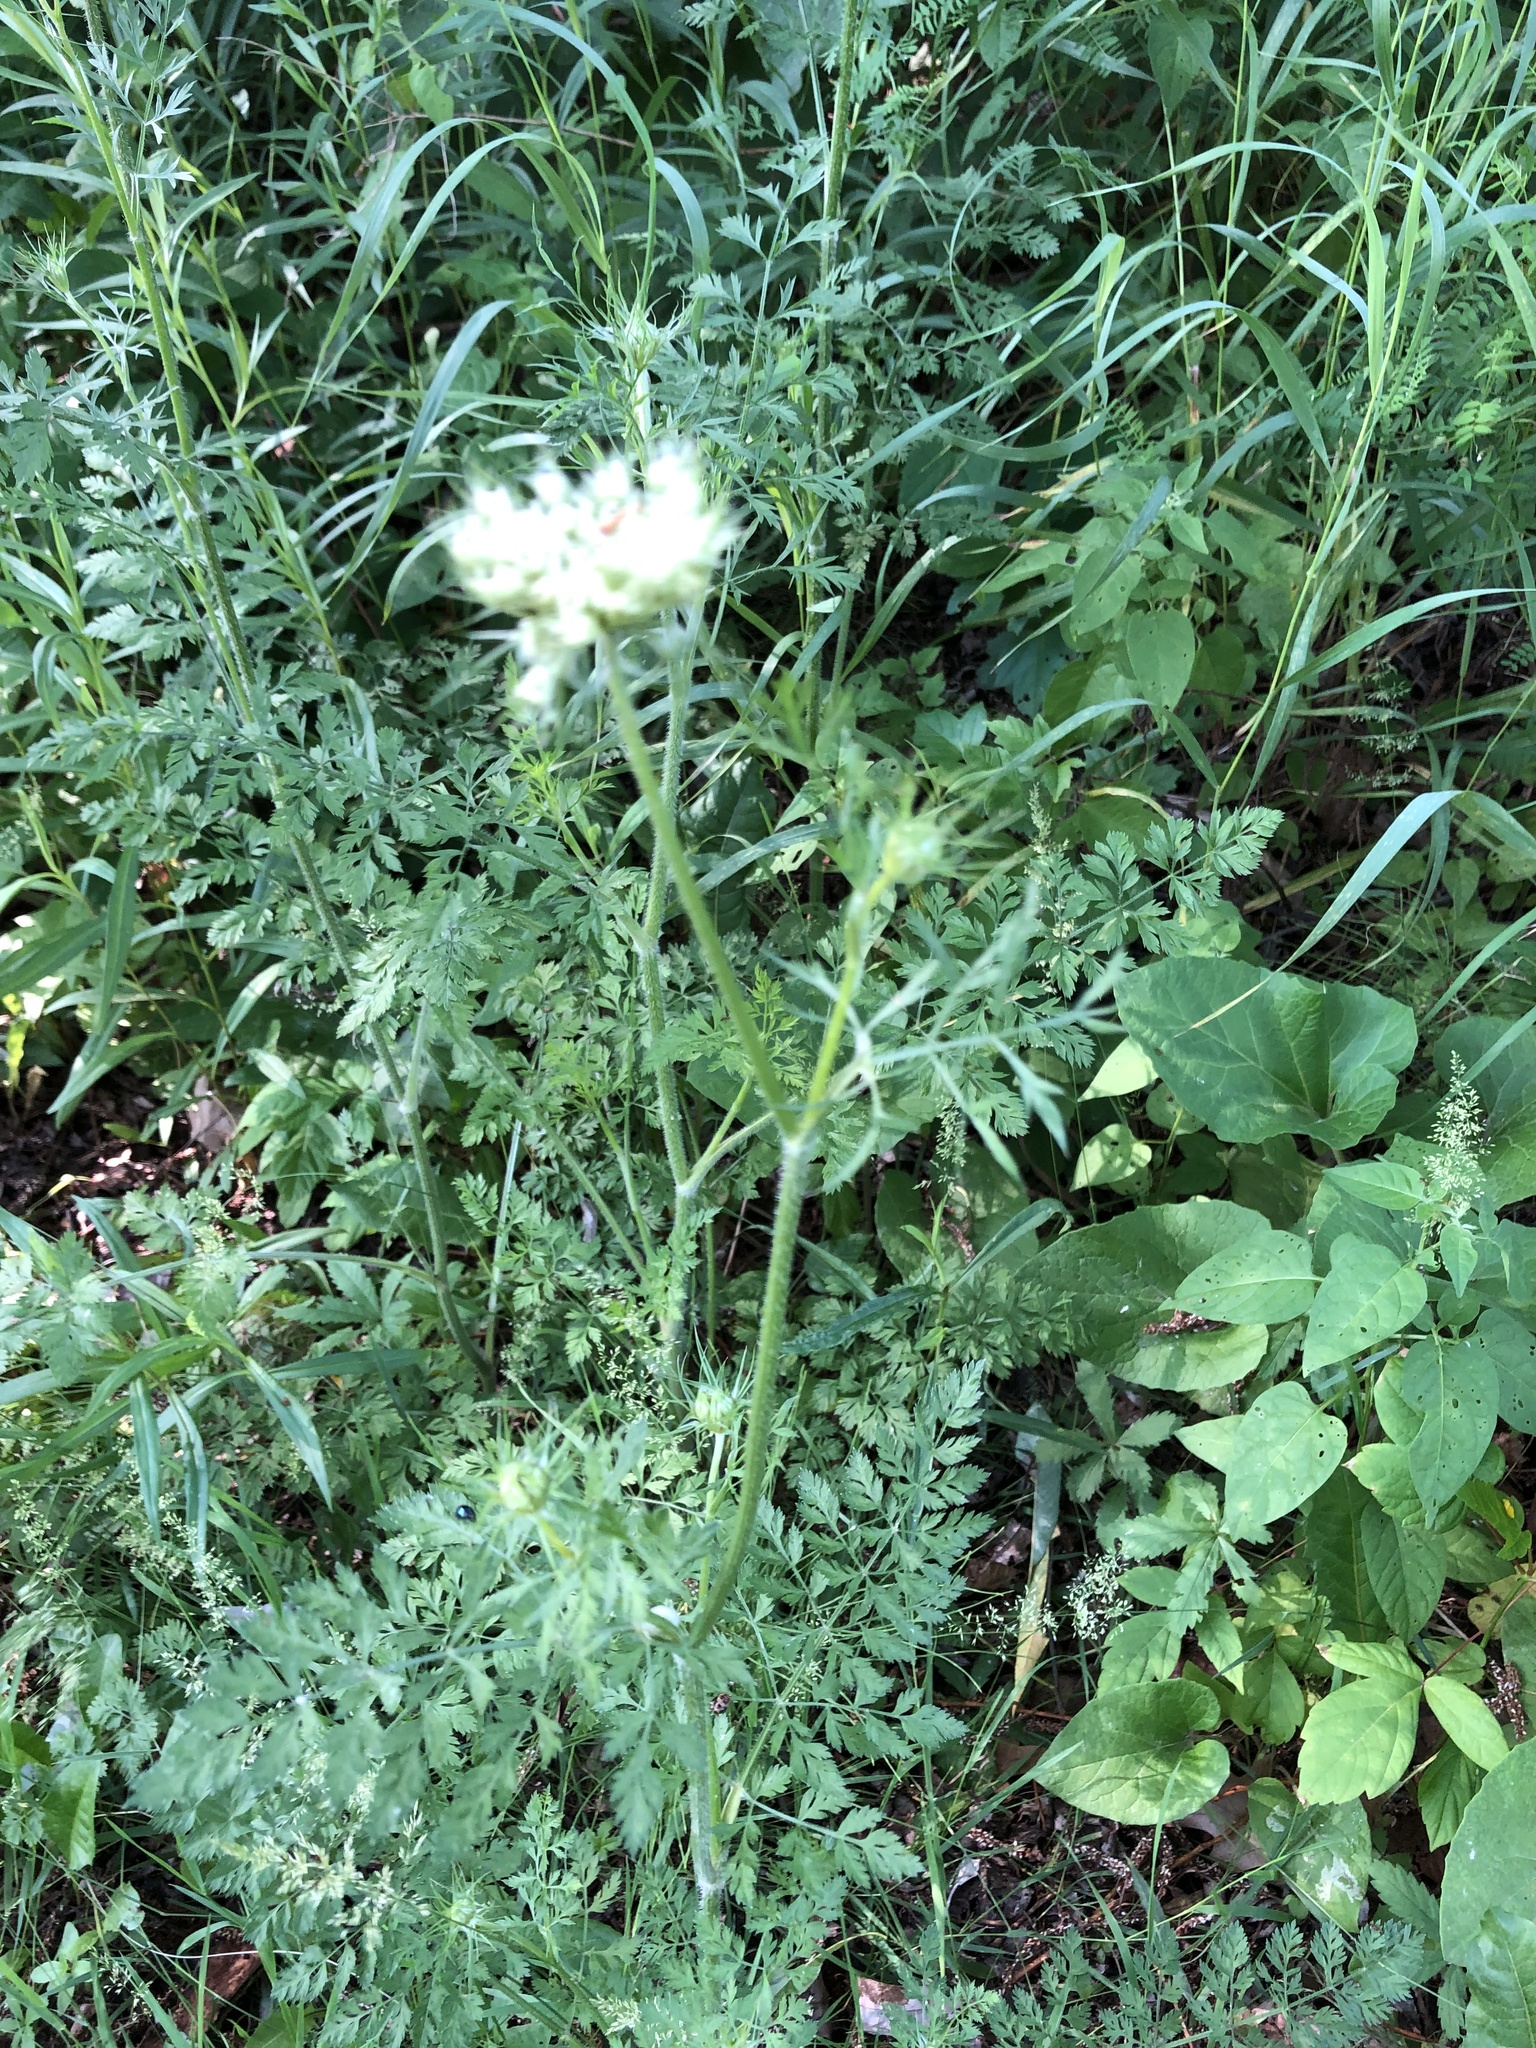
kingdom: Plantae
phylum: Tracheophyta
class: Magnoliopsida
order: Apiales
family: Apiaceae
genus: Daucus
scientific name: Daucus carota
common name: Wild carrot
